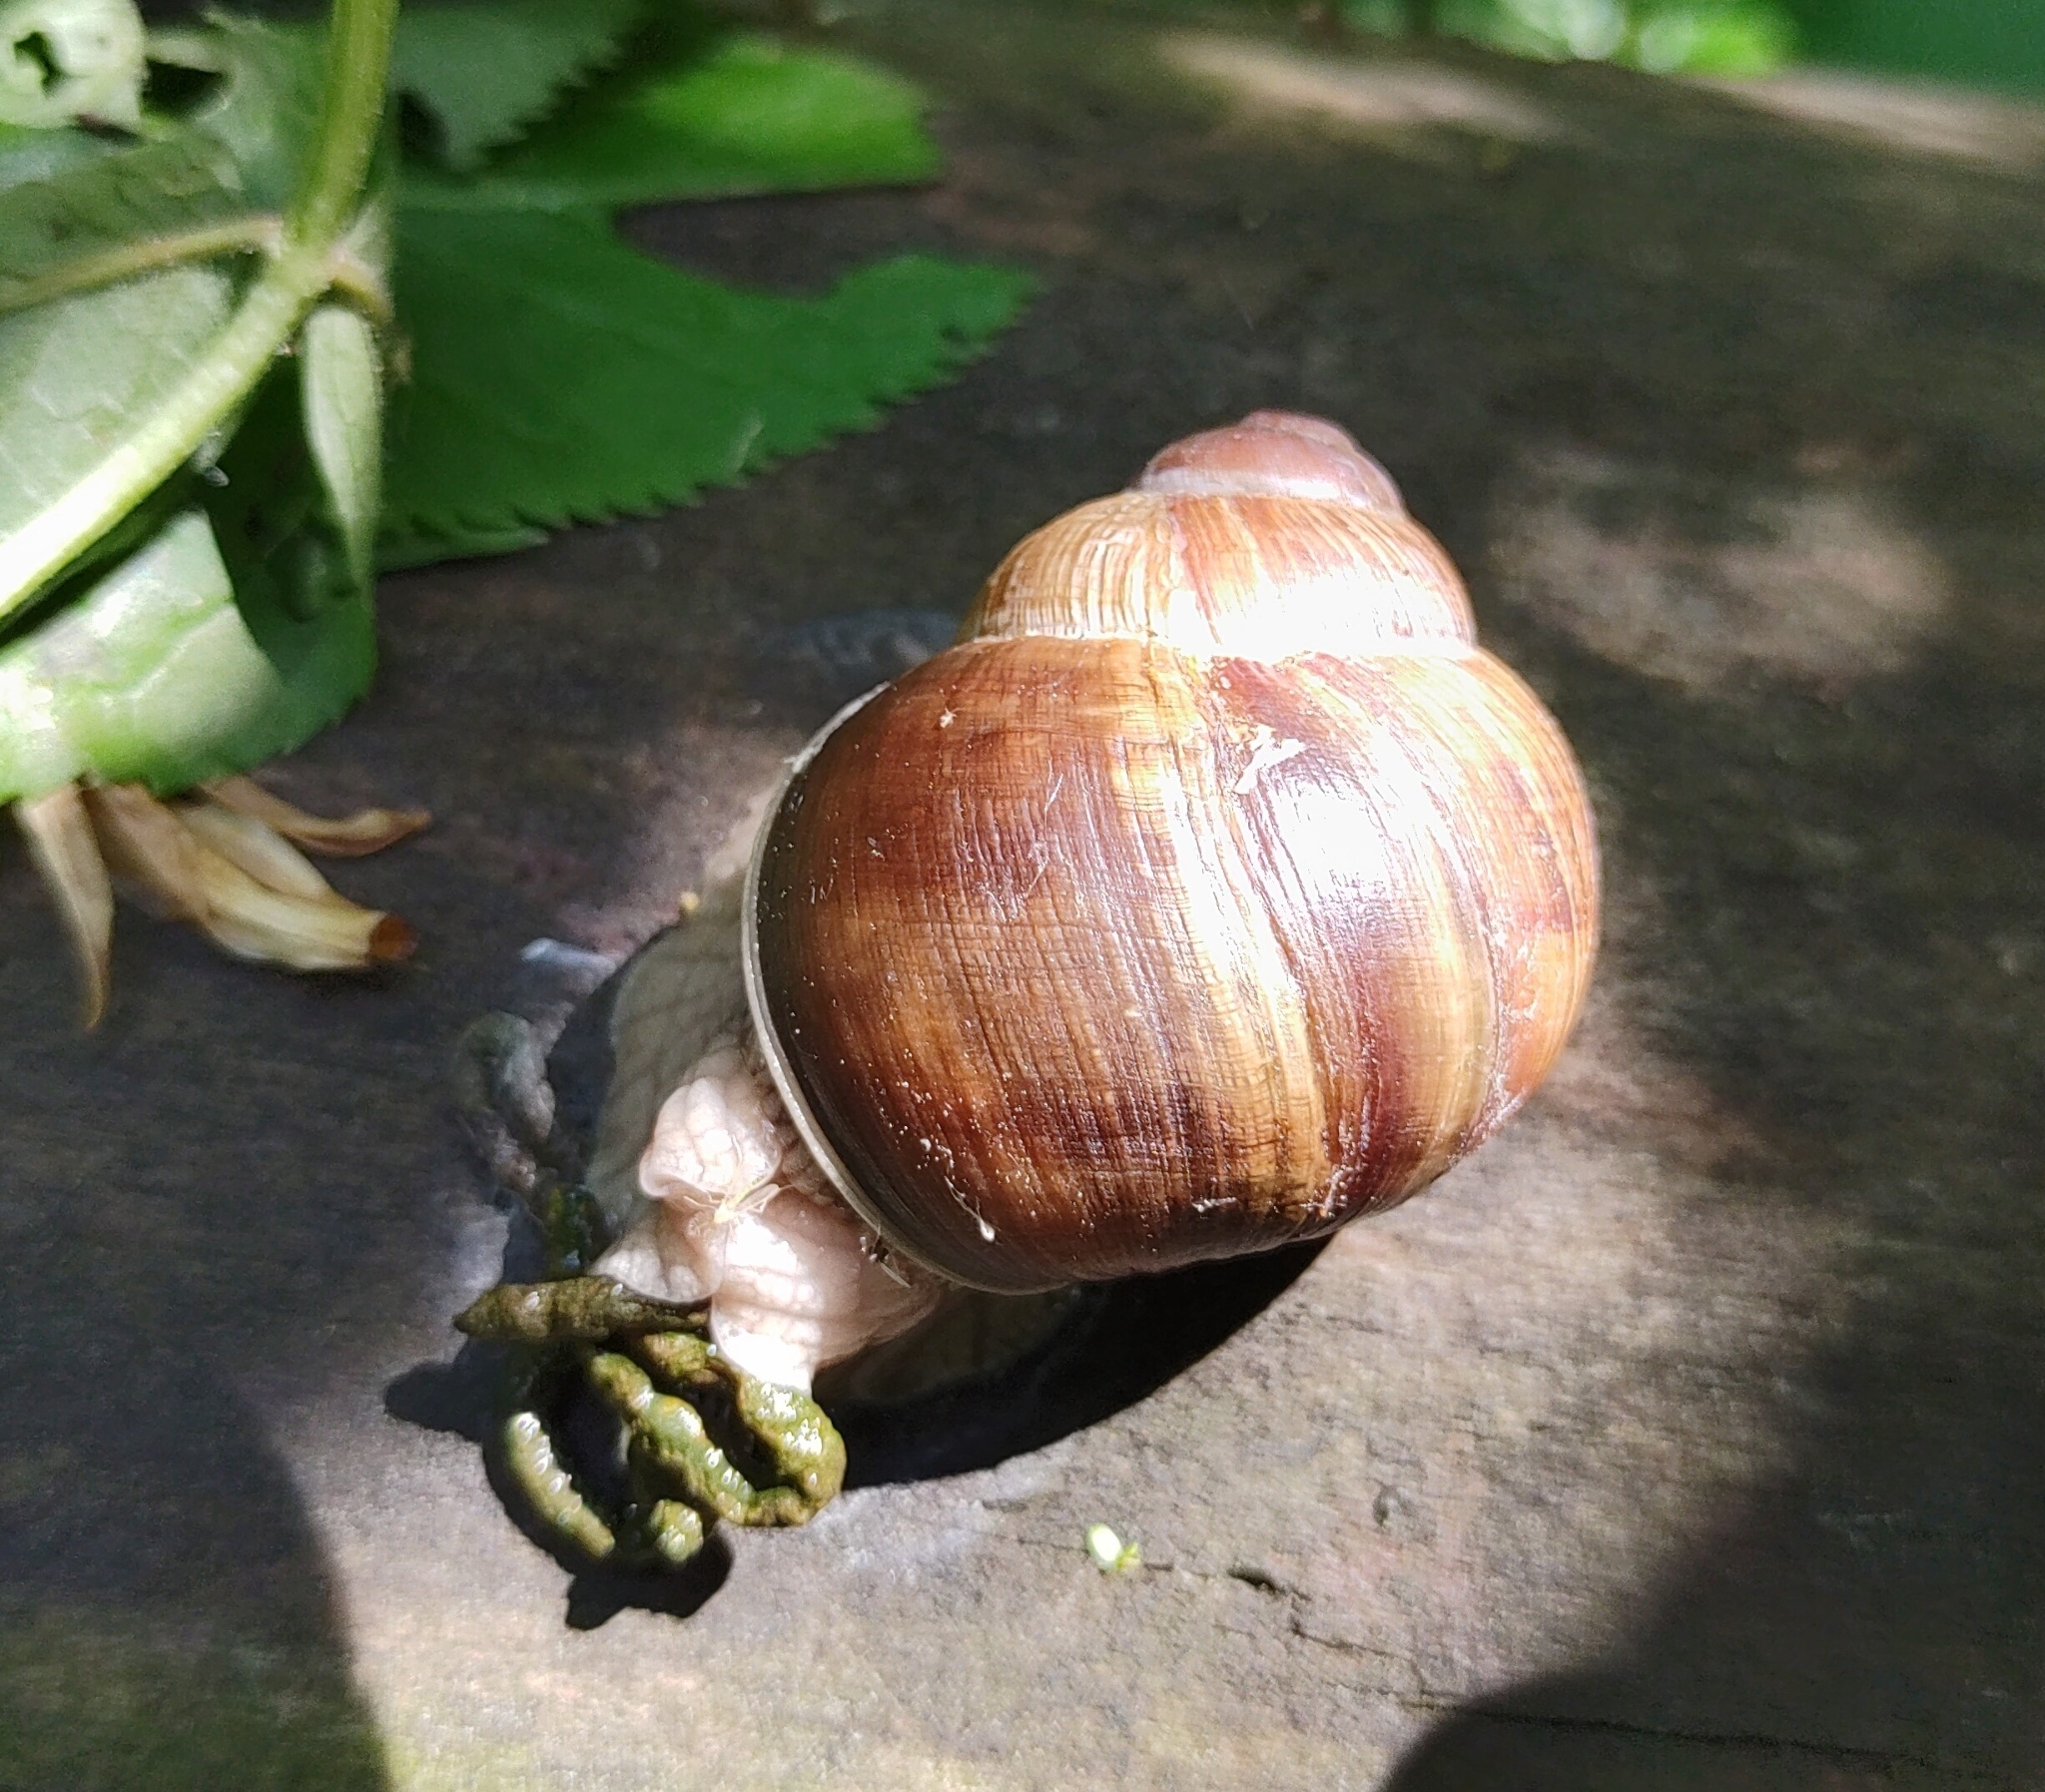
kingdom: Animalia
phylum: Mollusca
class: Gastropoda
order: Stylommatophora
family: Helicidae
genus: Helix
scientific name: Helix pomatia
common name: Roman snail
